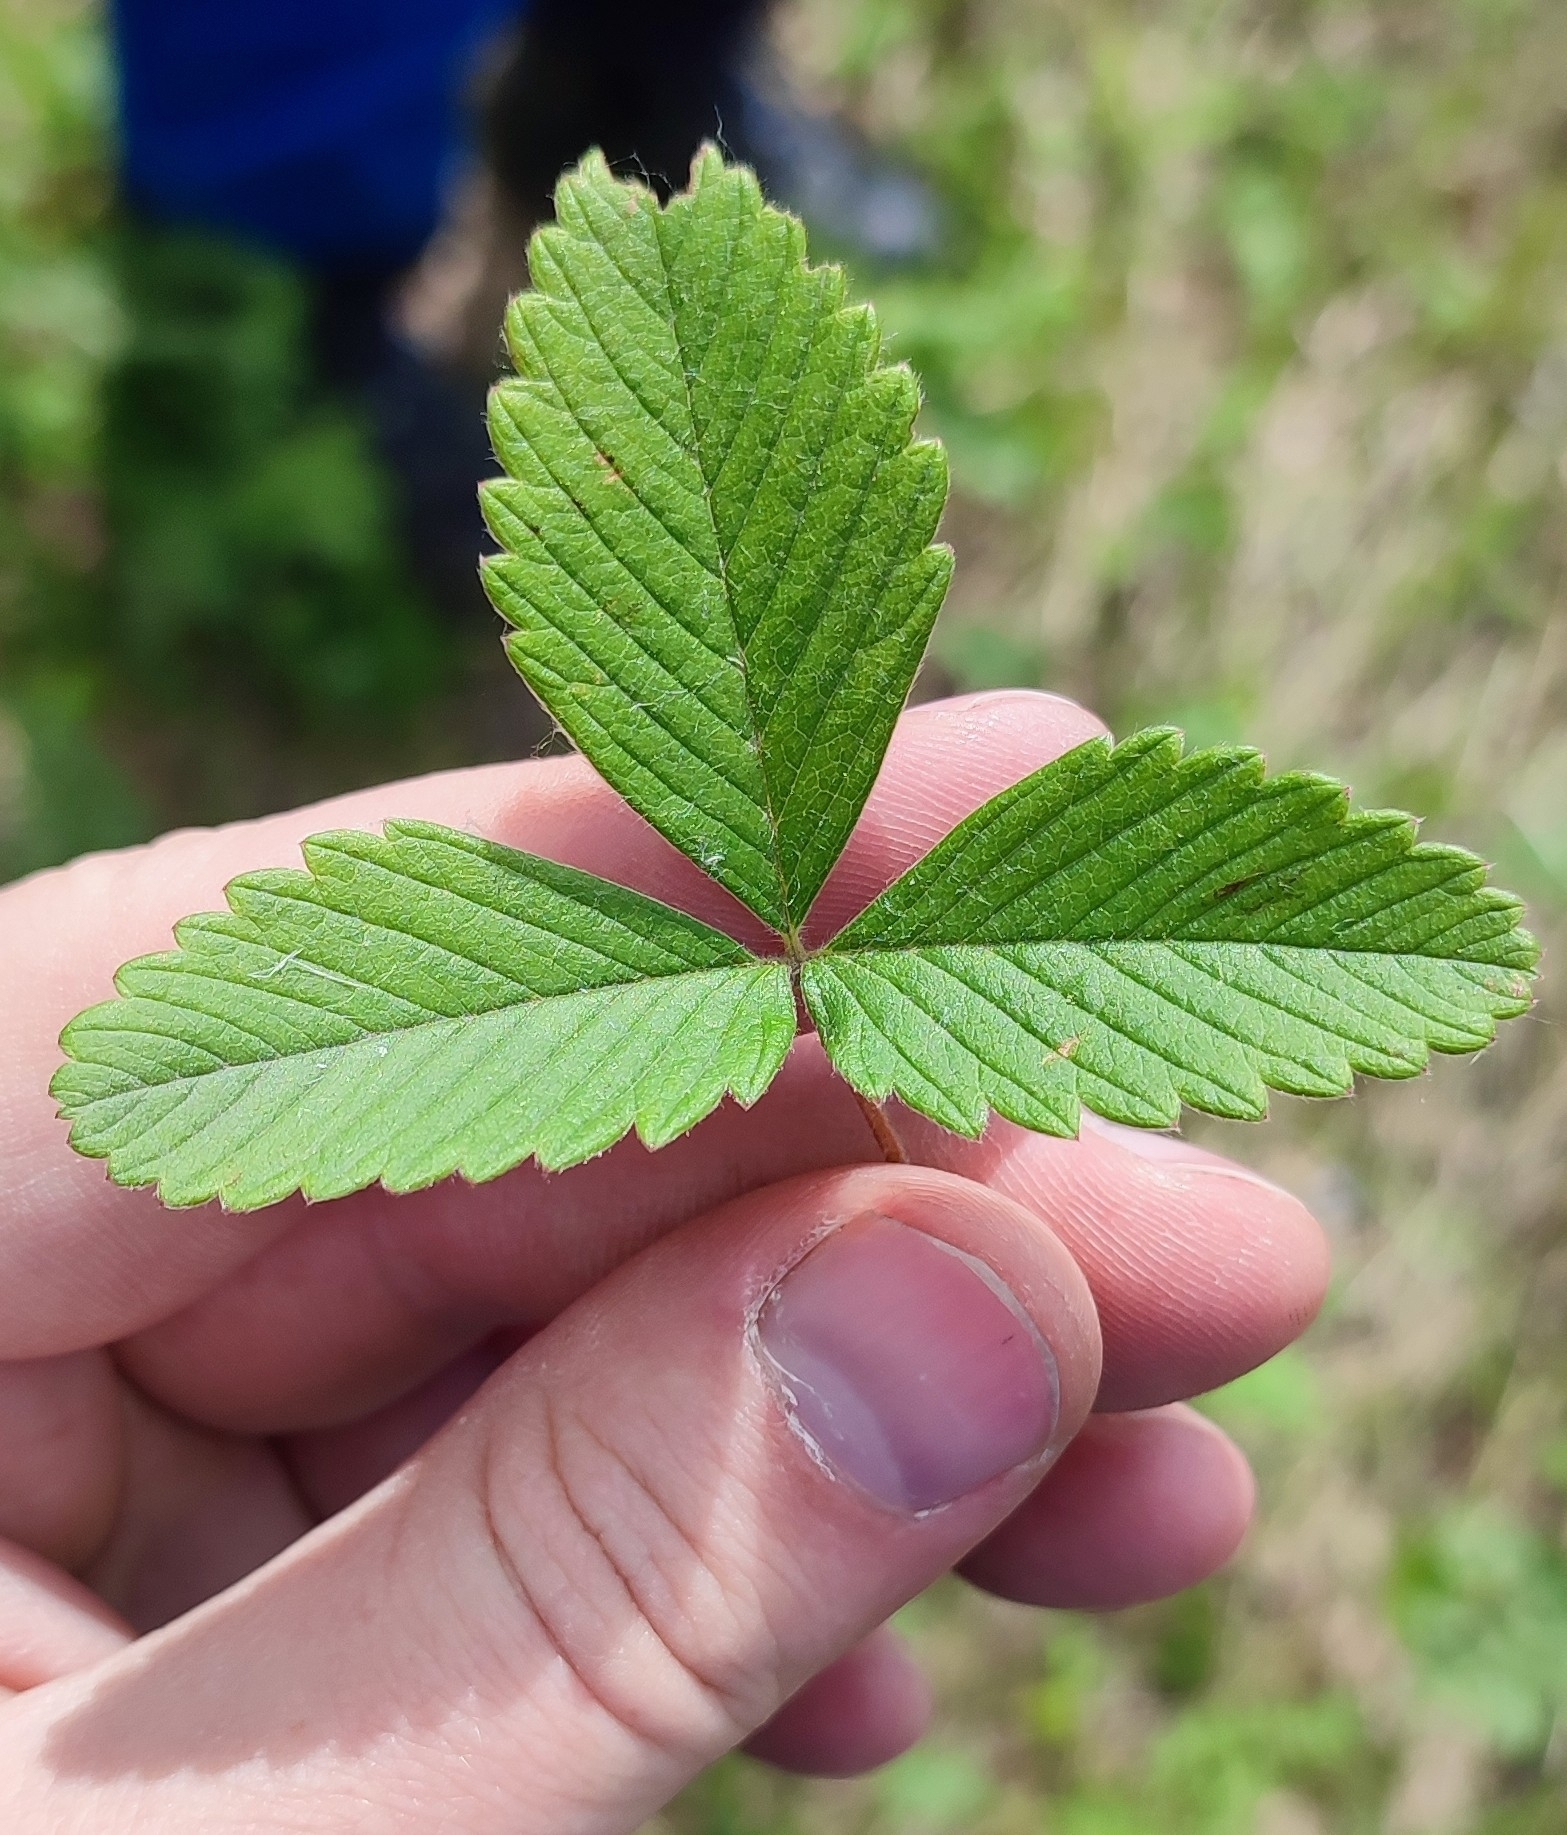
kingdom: Plantae
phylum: Tracheophyta
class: Magnoliopsida
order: Rosales
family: Rosaceae
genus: Fragaria
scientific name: Fragaria viridis
